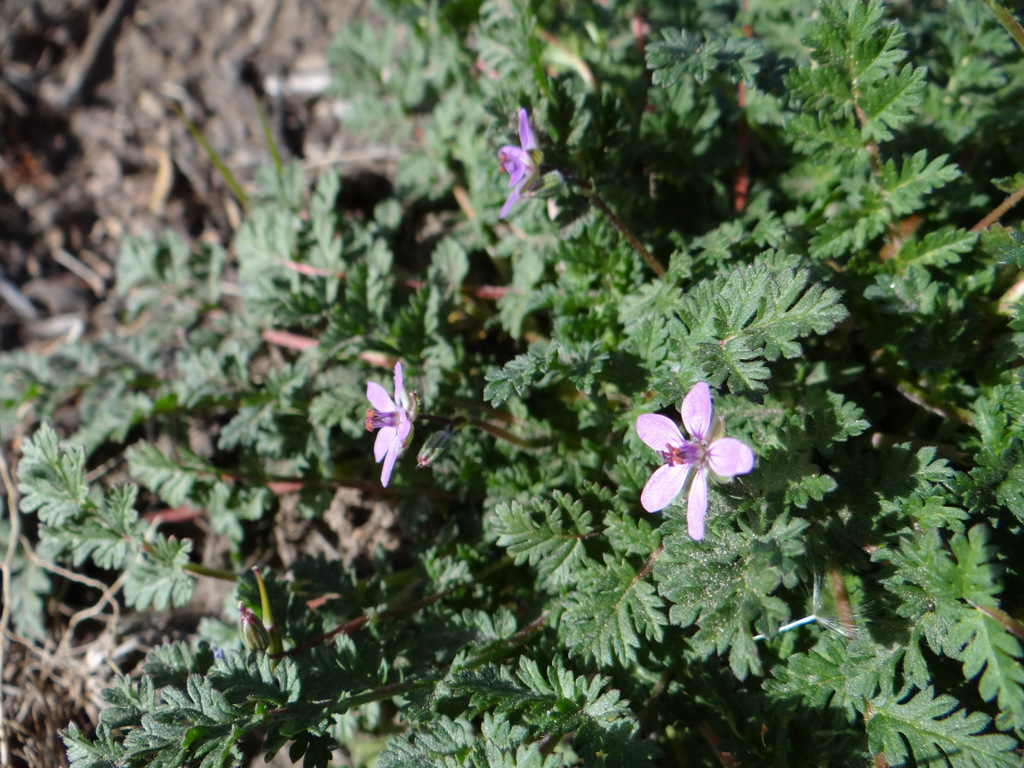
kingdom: Plantae
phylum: Tracheophyta
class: Magnoliopsida
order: Geraniales
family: Geraniaceae
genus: Erodium
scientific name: Erodium cicutarium
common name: Common stork's-bill
